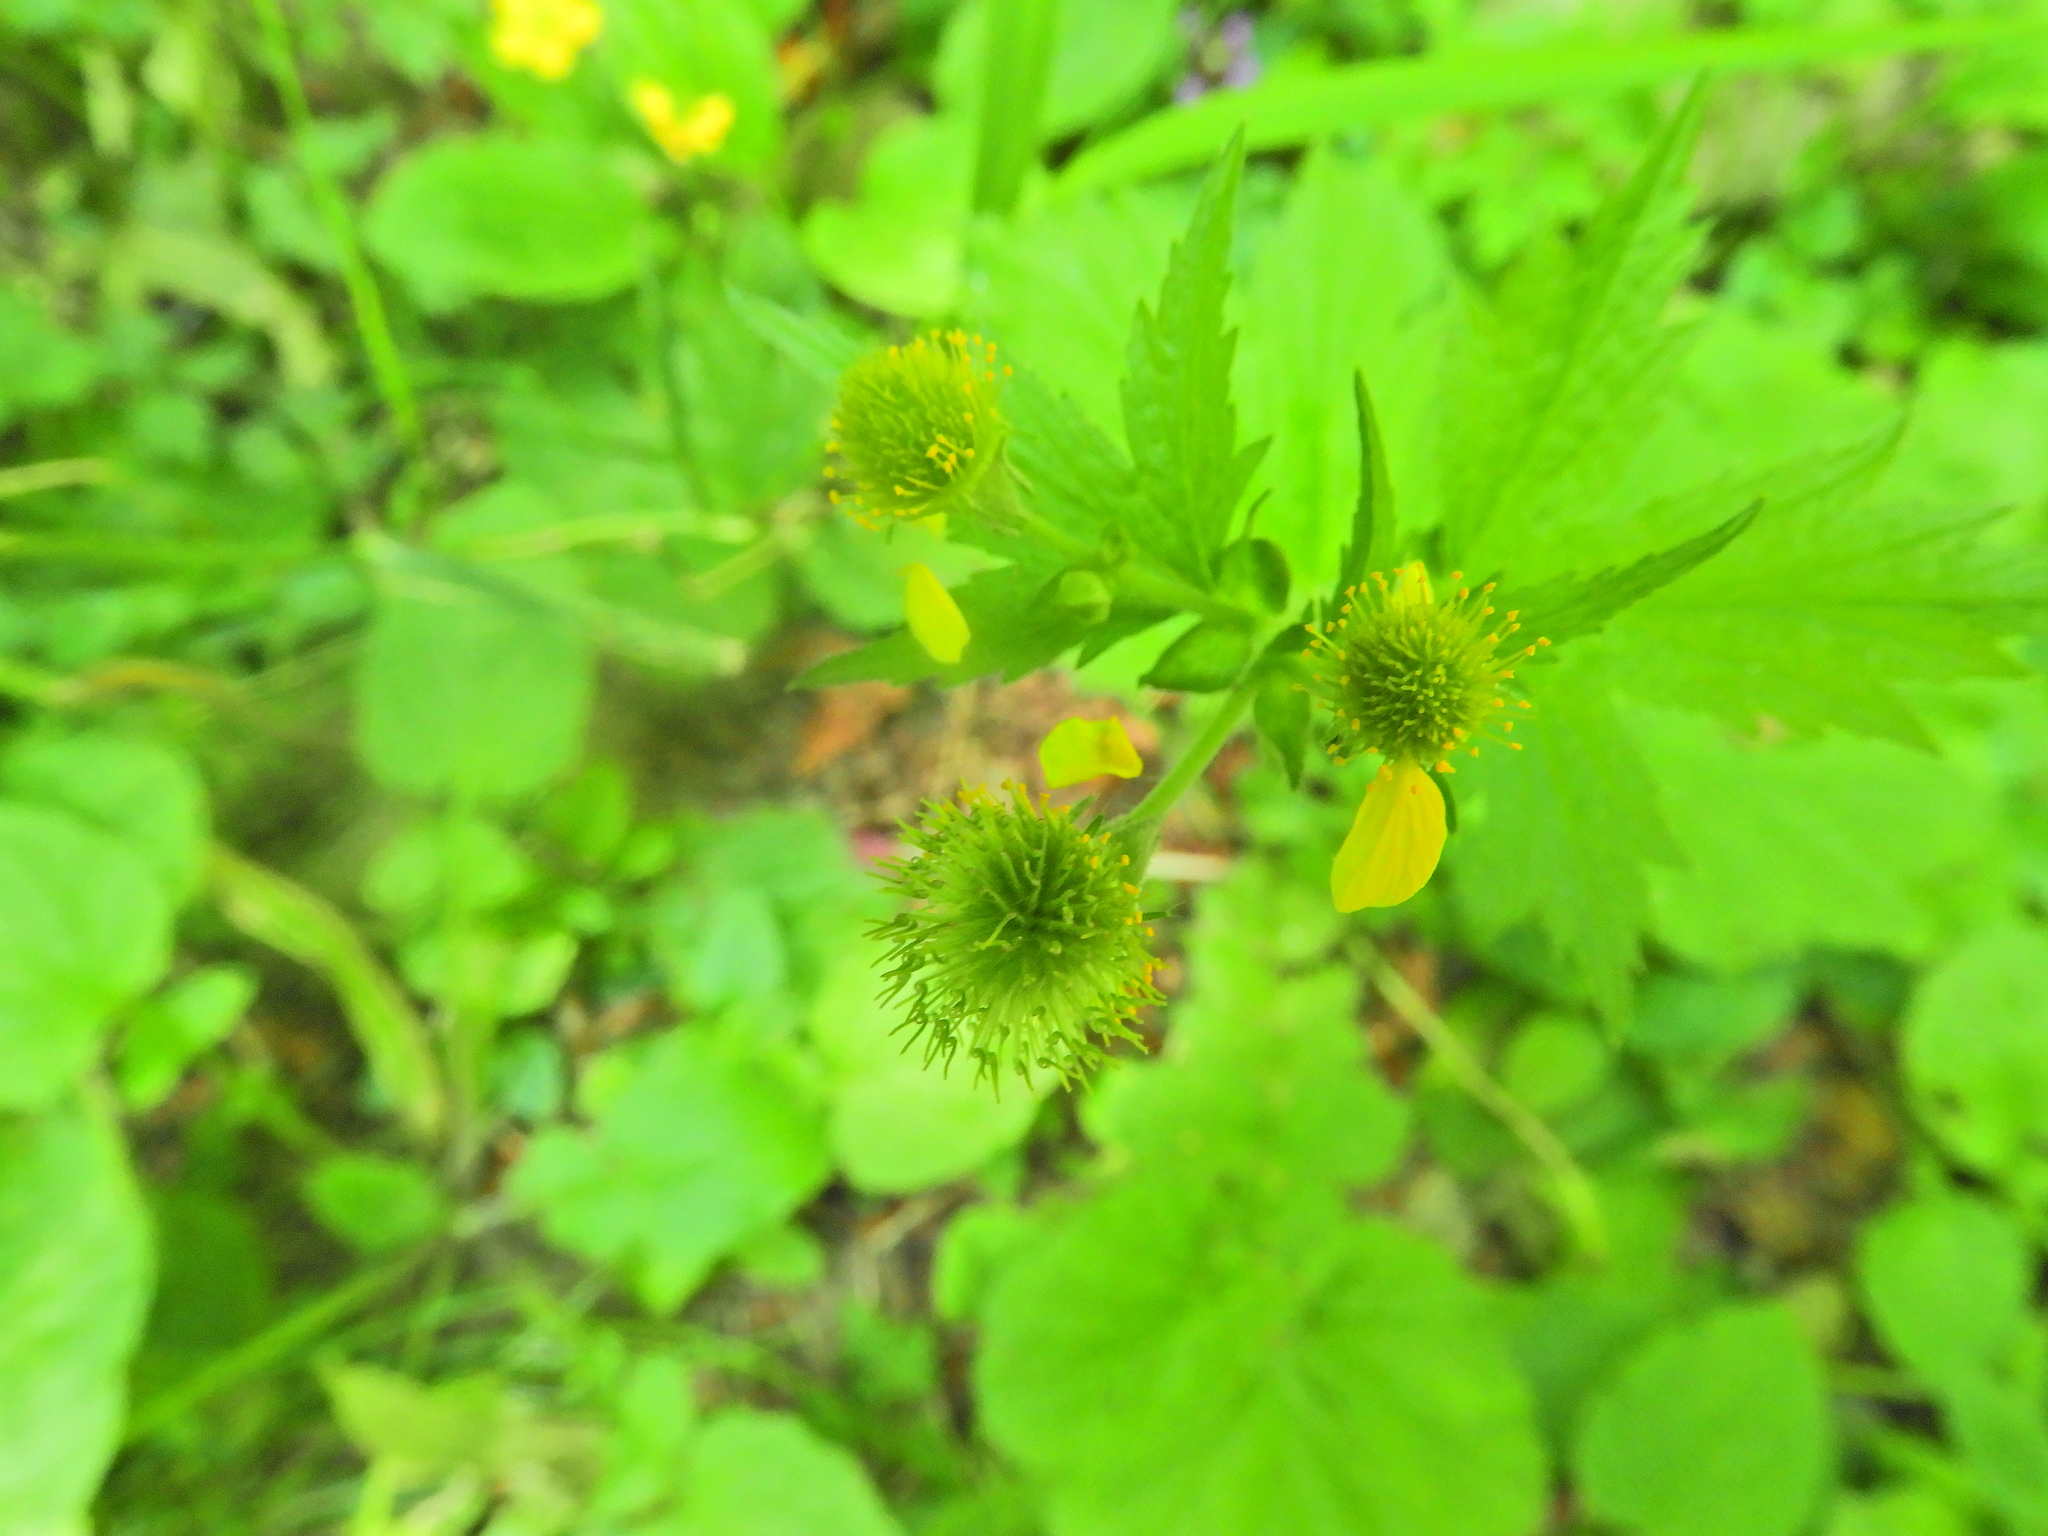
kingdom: Plantae
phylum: Tracheophyta
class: Magnoliopsida
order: Rosales
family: Rosaceae
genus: Geum
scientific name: Geum macrophyllum
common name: Large-leaved avens
